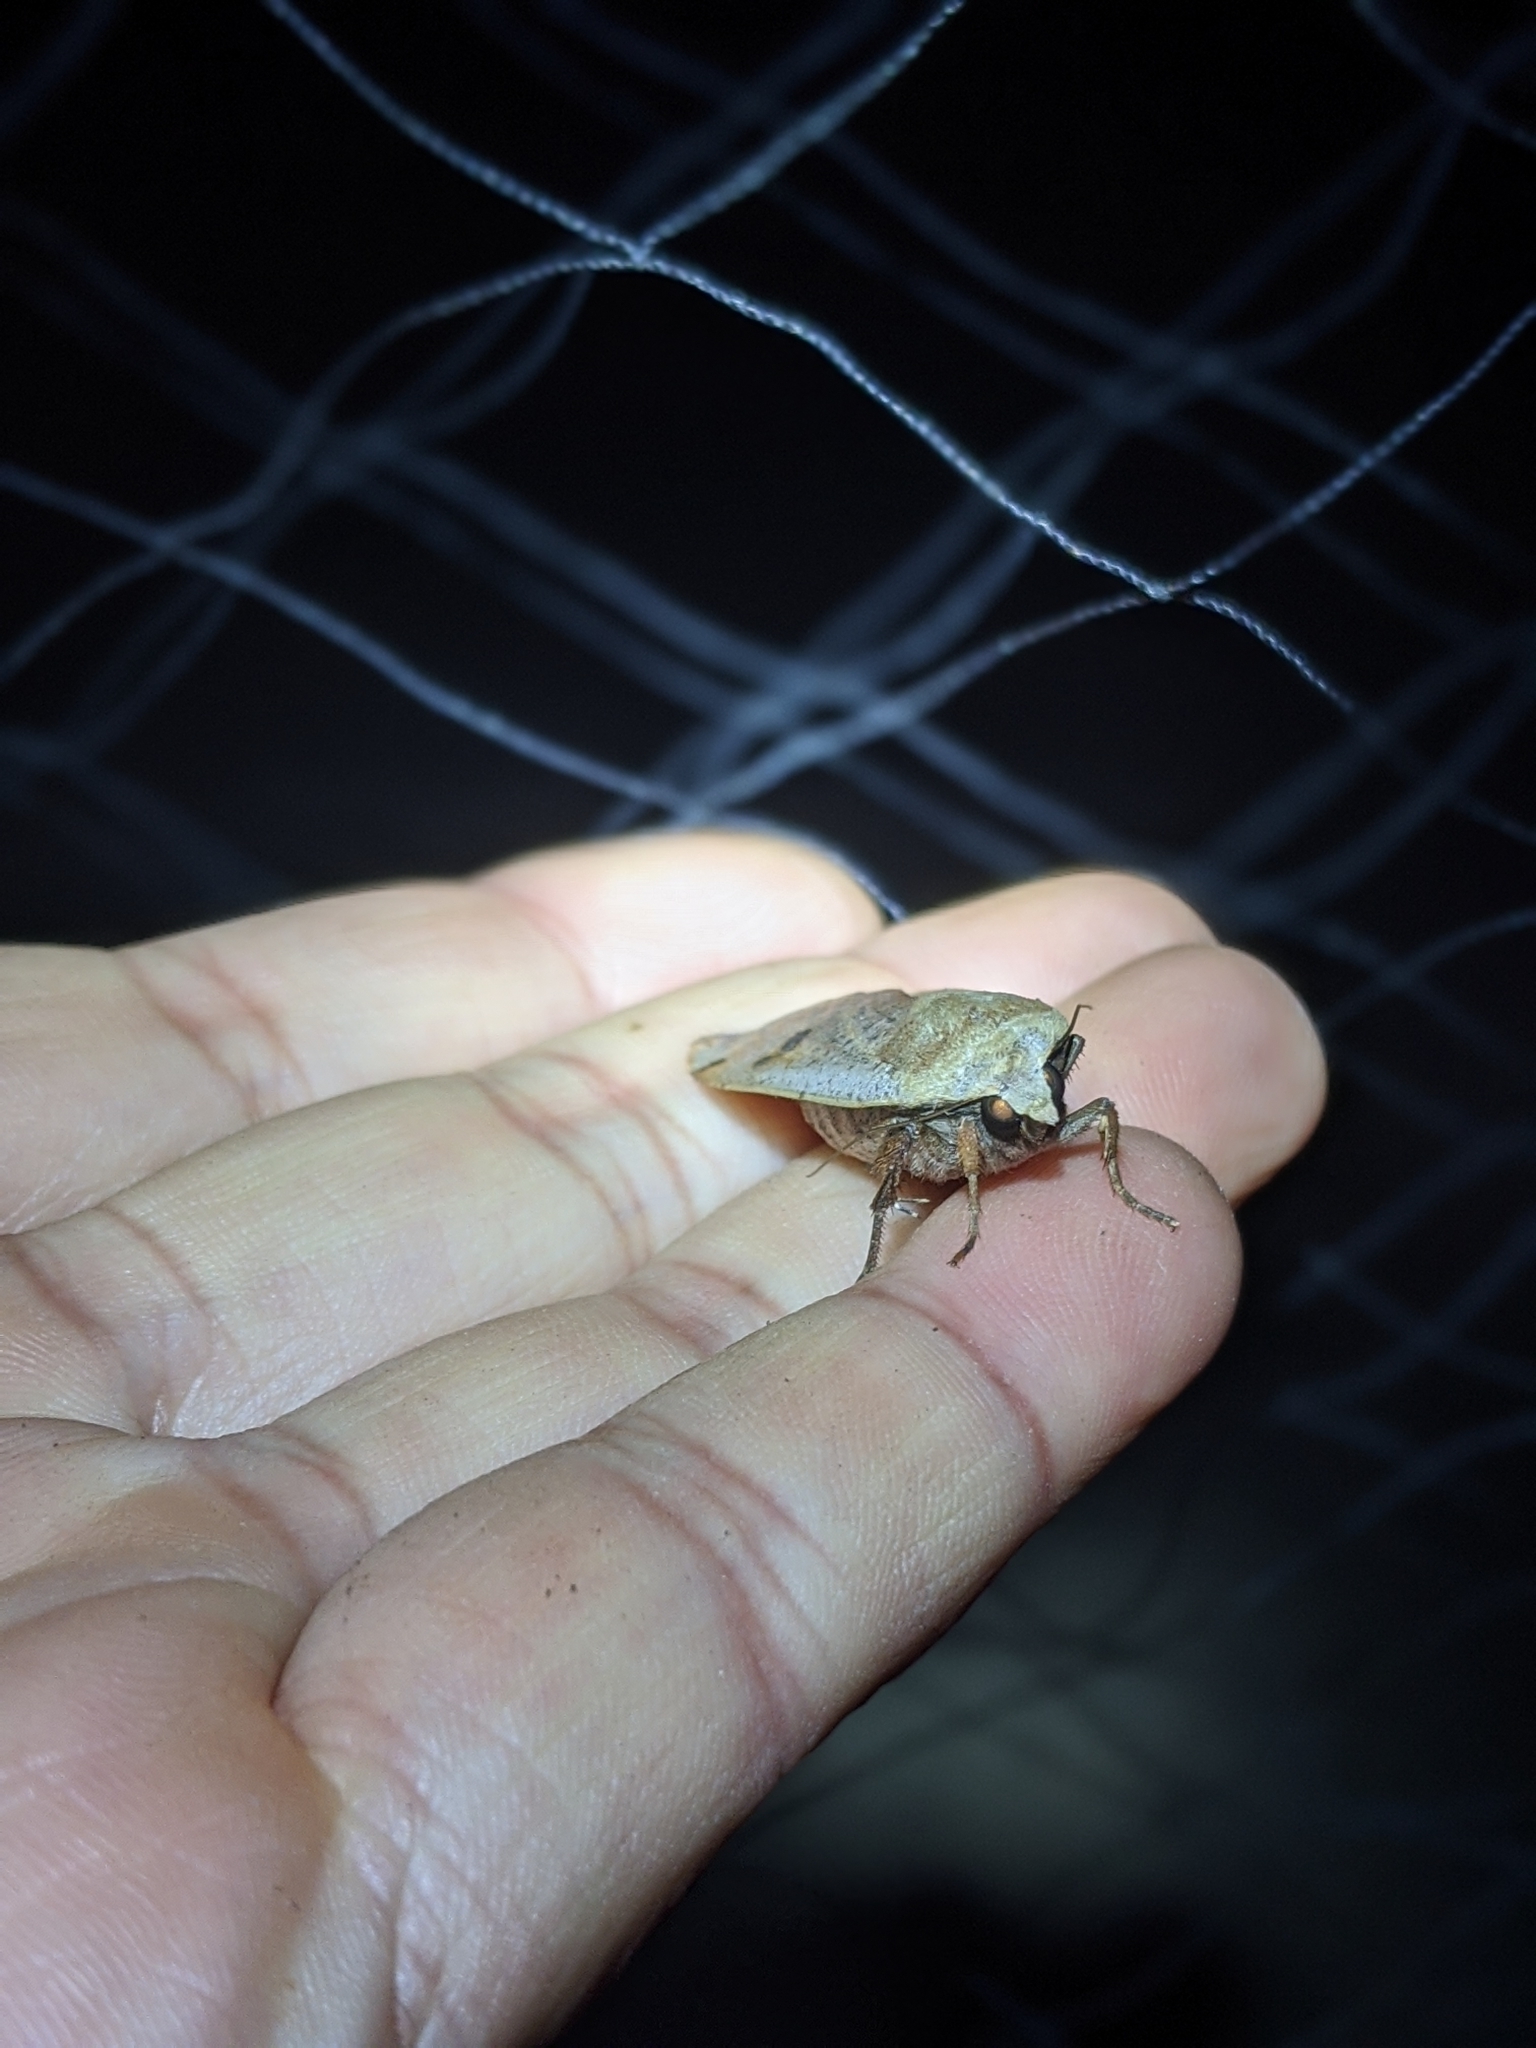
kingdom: Animalia
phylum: Arthropoda
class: Insecta
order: Lepidoptera
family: Noctuidae
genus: Noctua
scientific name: Noctua pronuba
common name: Large yellow underwing
